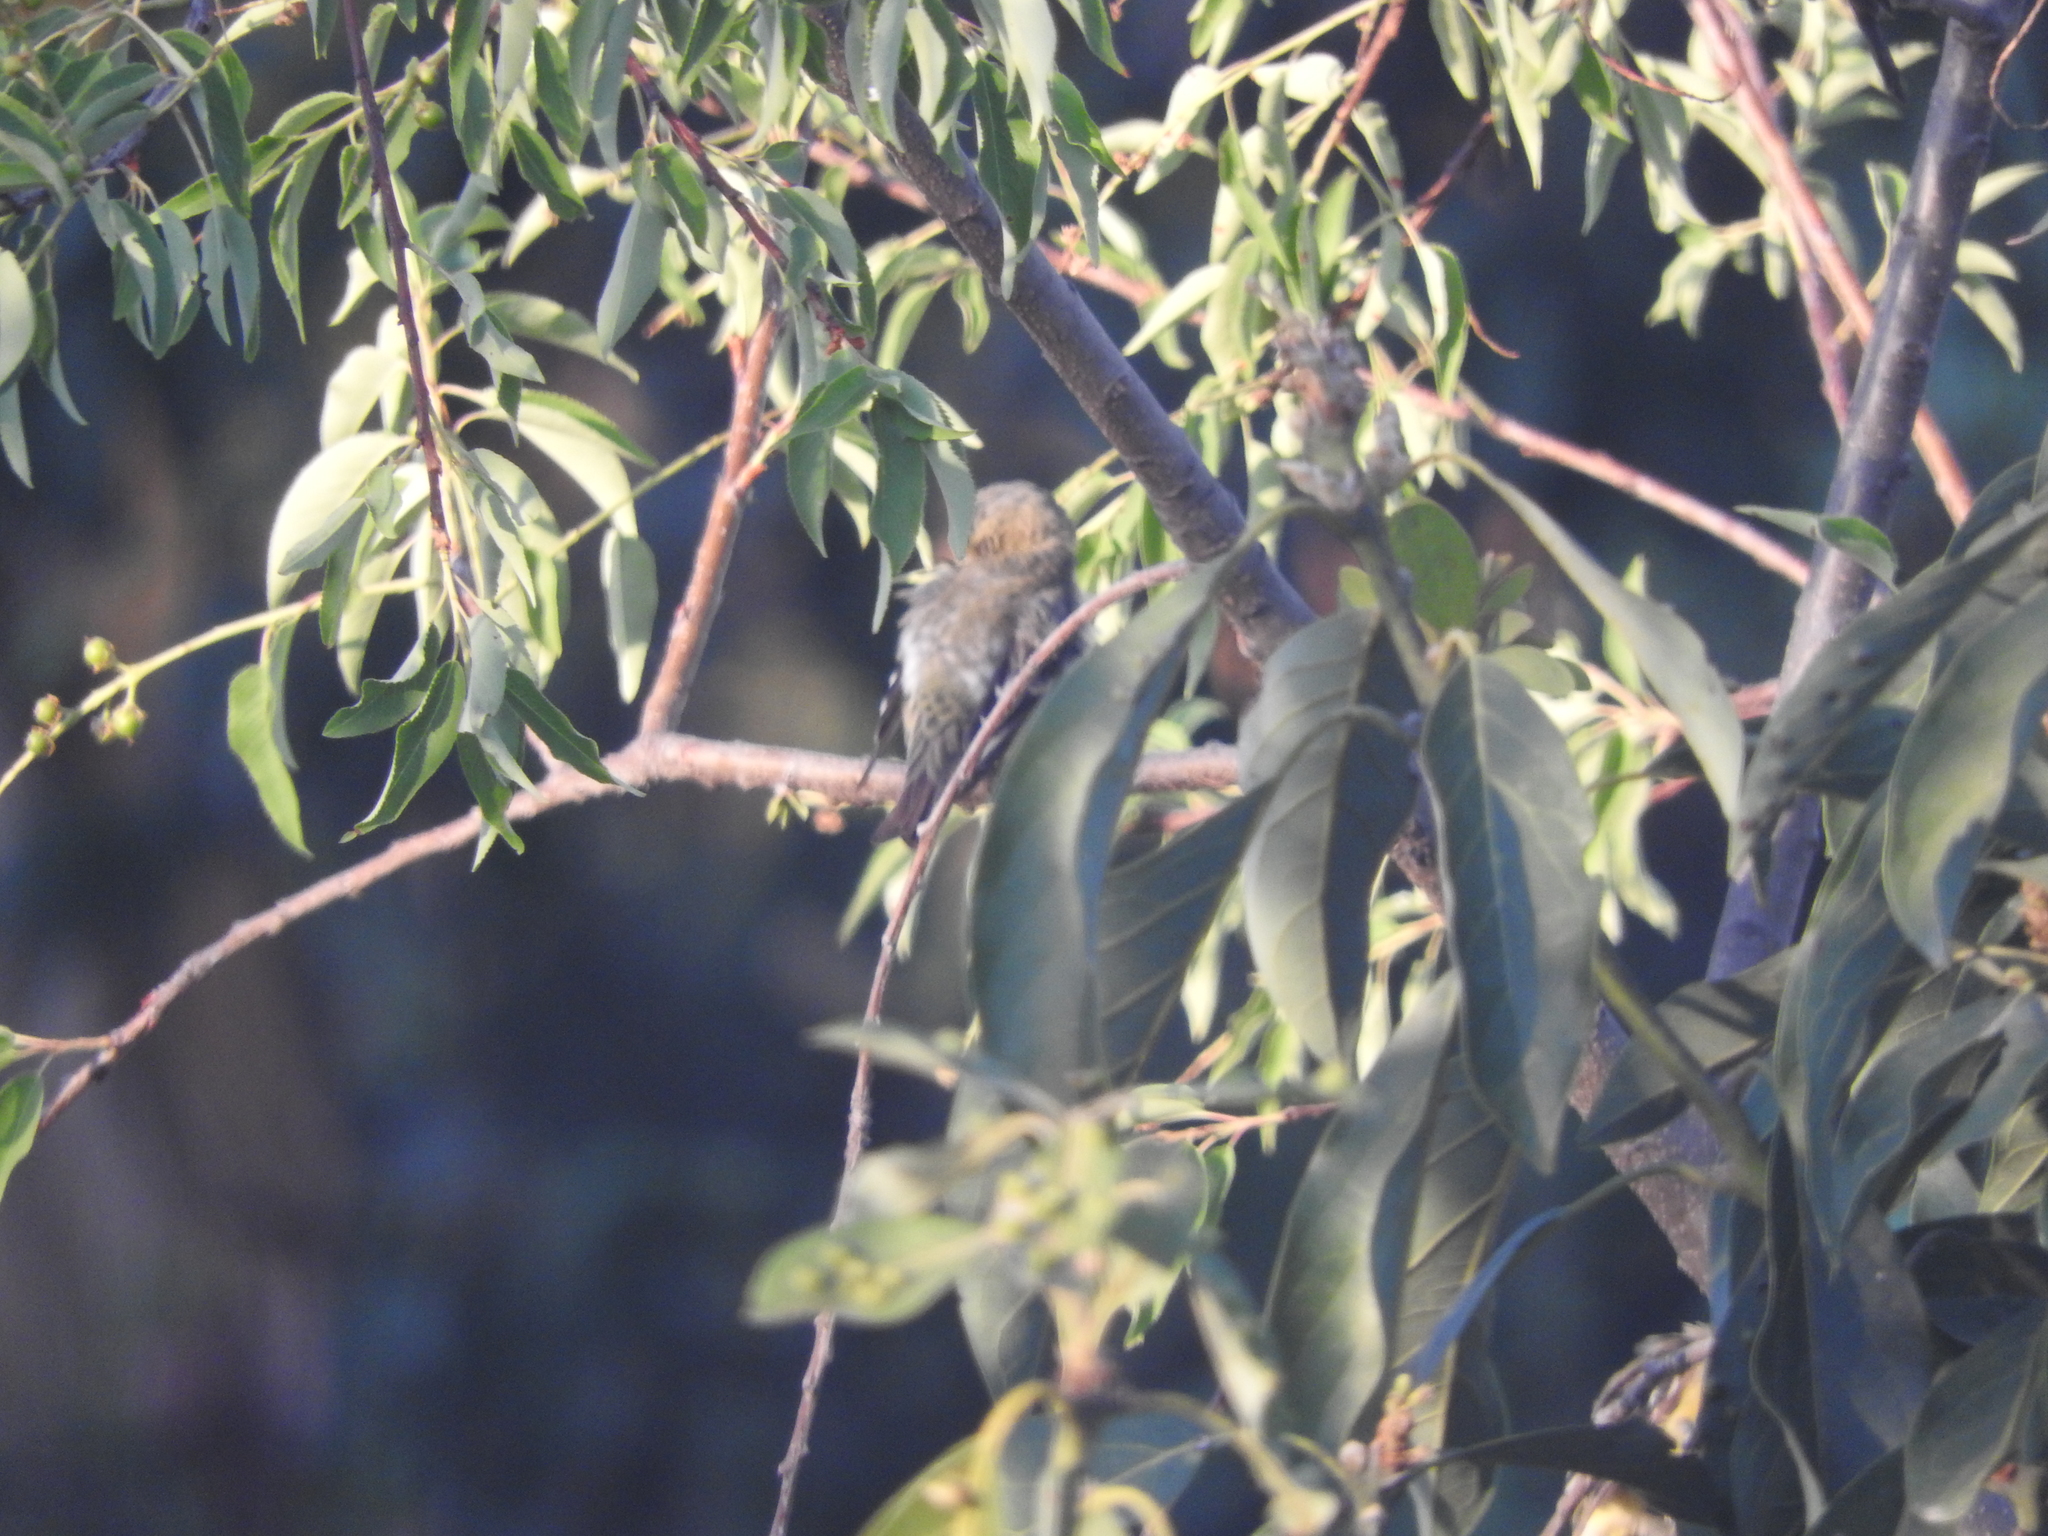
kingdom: Animalia
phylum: Chordata
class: Aves
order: Passeriformes
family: Fringillidae
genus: Spinus
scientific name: Spinus psaltria
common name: Lesser goldfinch
